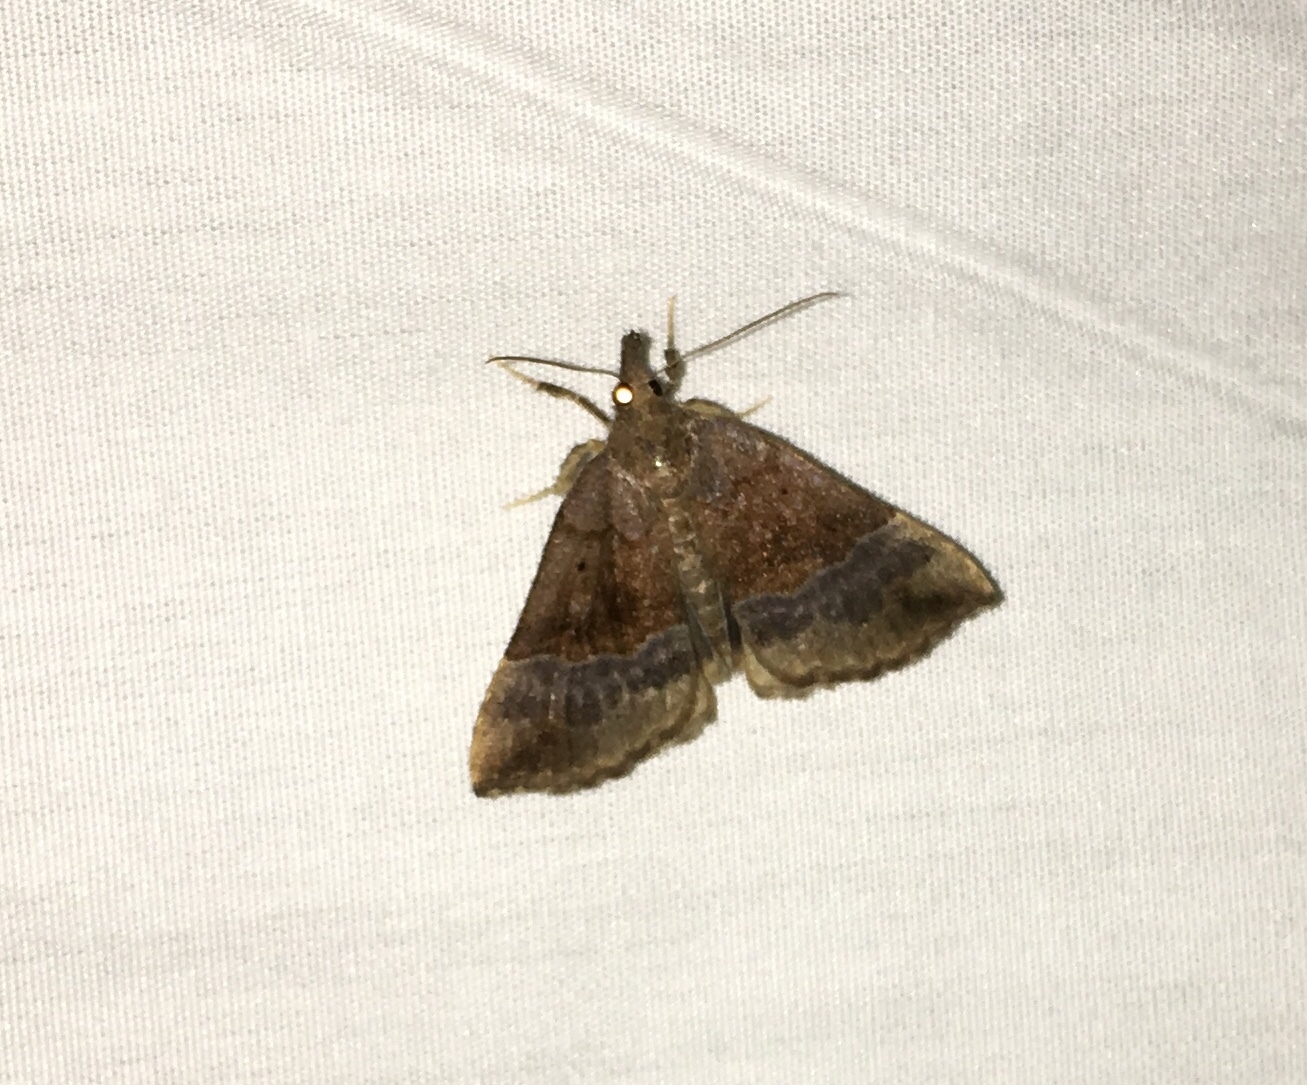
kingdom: Animalia
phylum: Arthropoda
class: Insecta
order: Lepidoptera
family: Erebidae
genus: Hypena
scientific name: Hypena madefactalis
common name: Gray-edged snout
